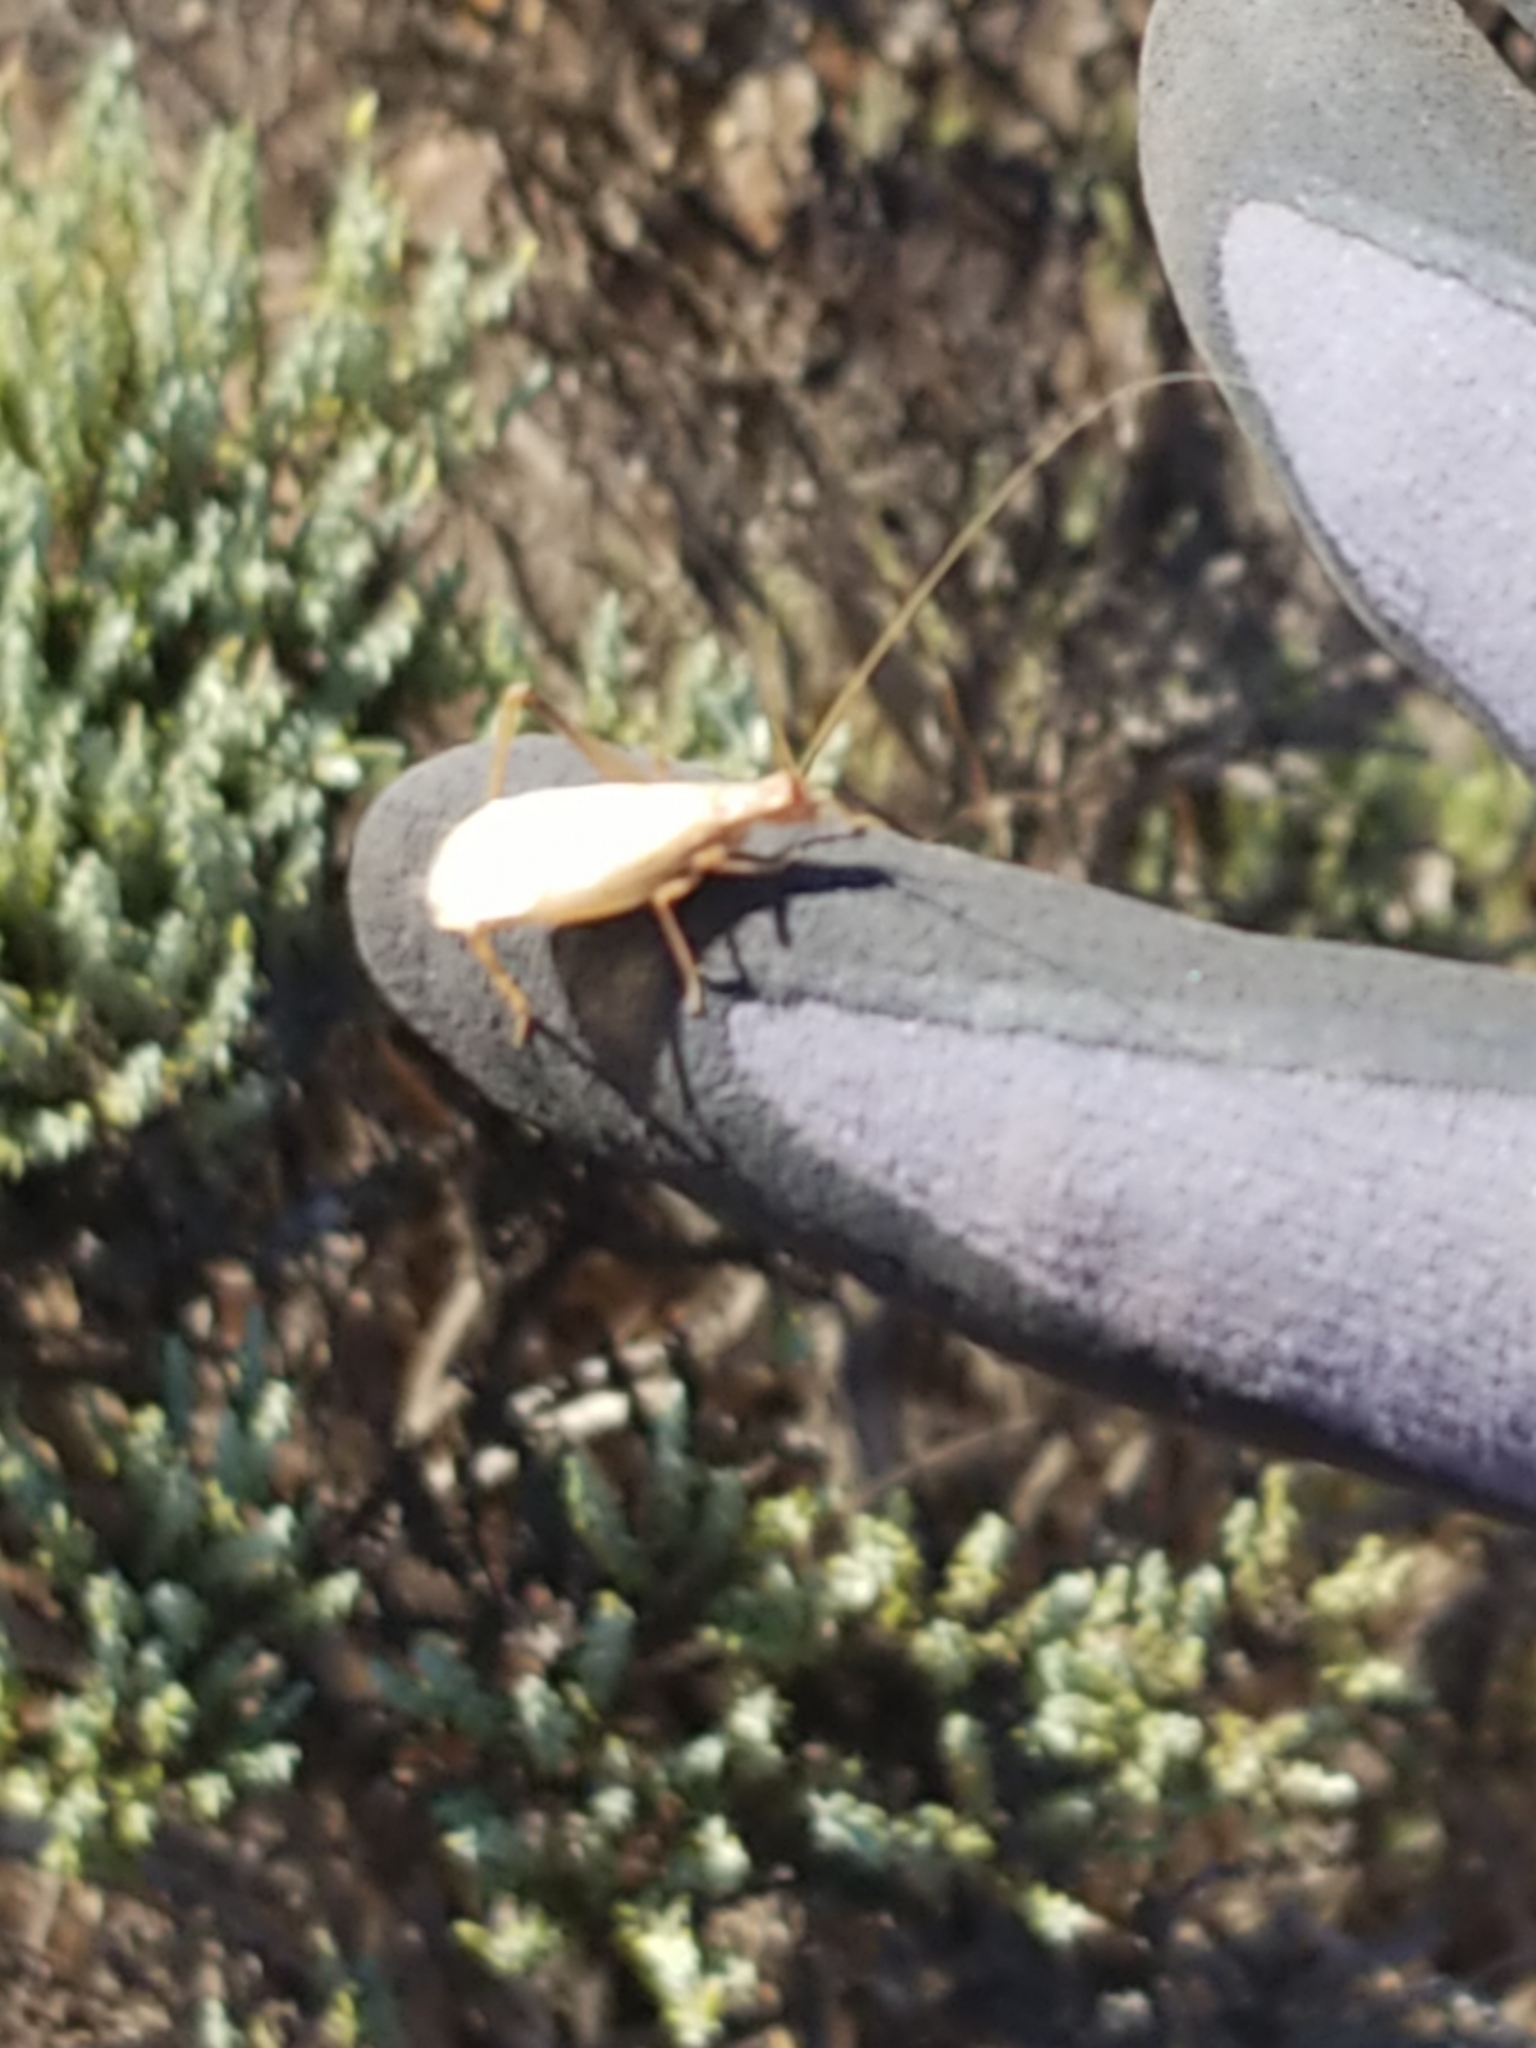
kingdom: Animalia
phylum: Arthropoda
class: Insecta
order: Orthoptera
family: Gryllidae
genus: Oecanthus
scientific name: Oecanthus californicus
